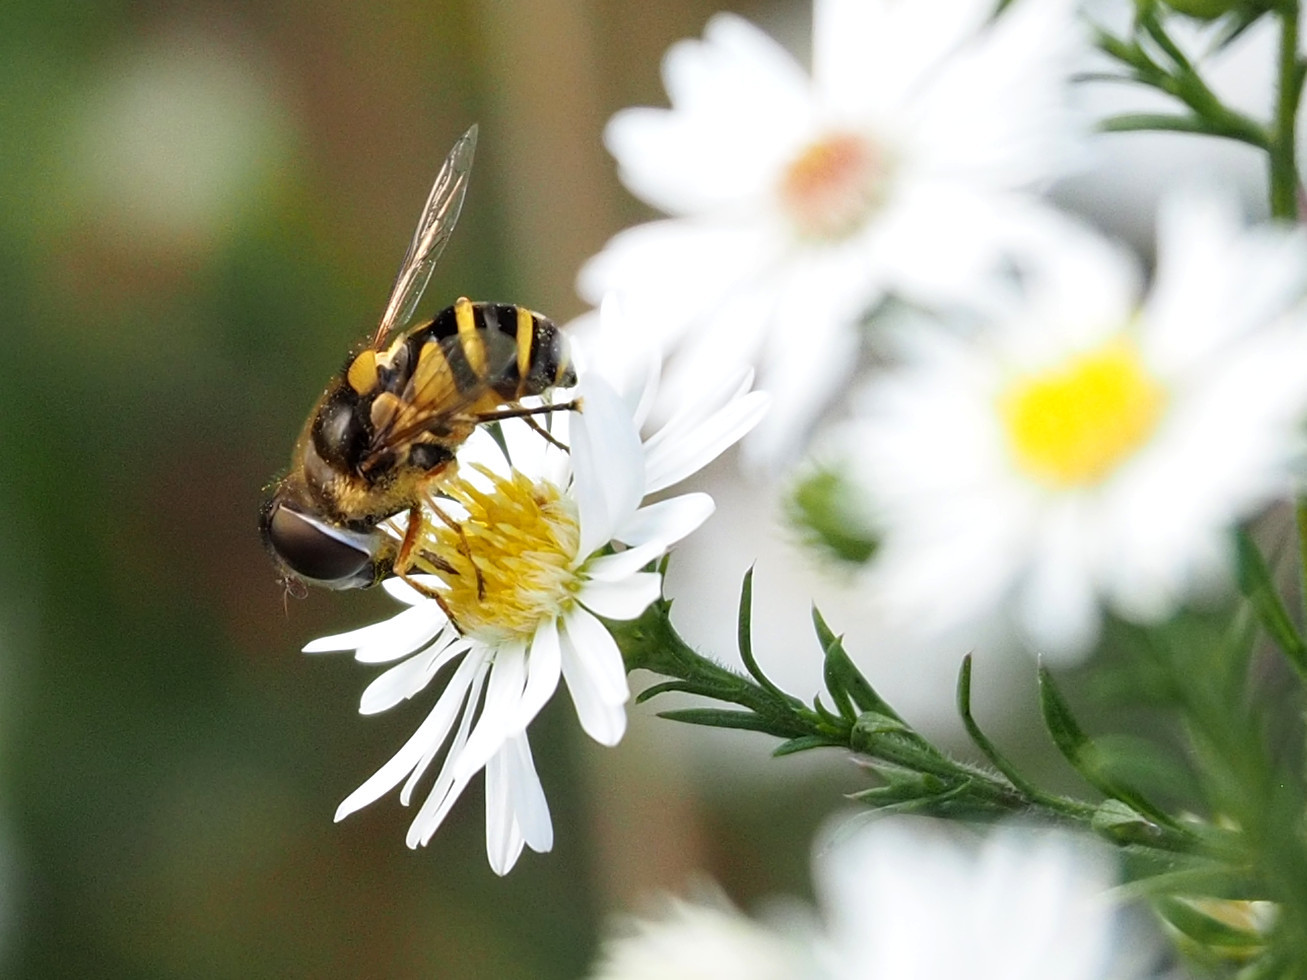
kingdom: Animalia
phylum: Arthropoda
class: Insecta
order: Diptera
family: Syrphidae
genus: Eristalis
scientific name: Eristalis transversa
